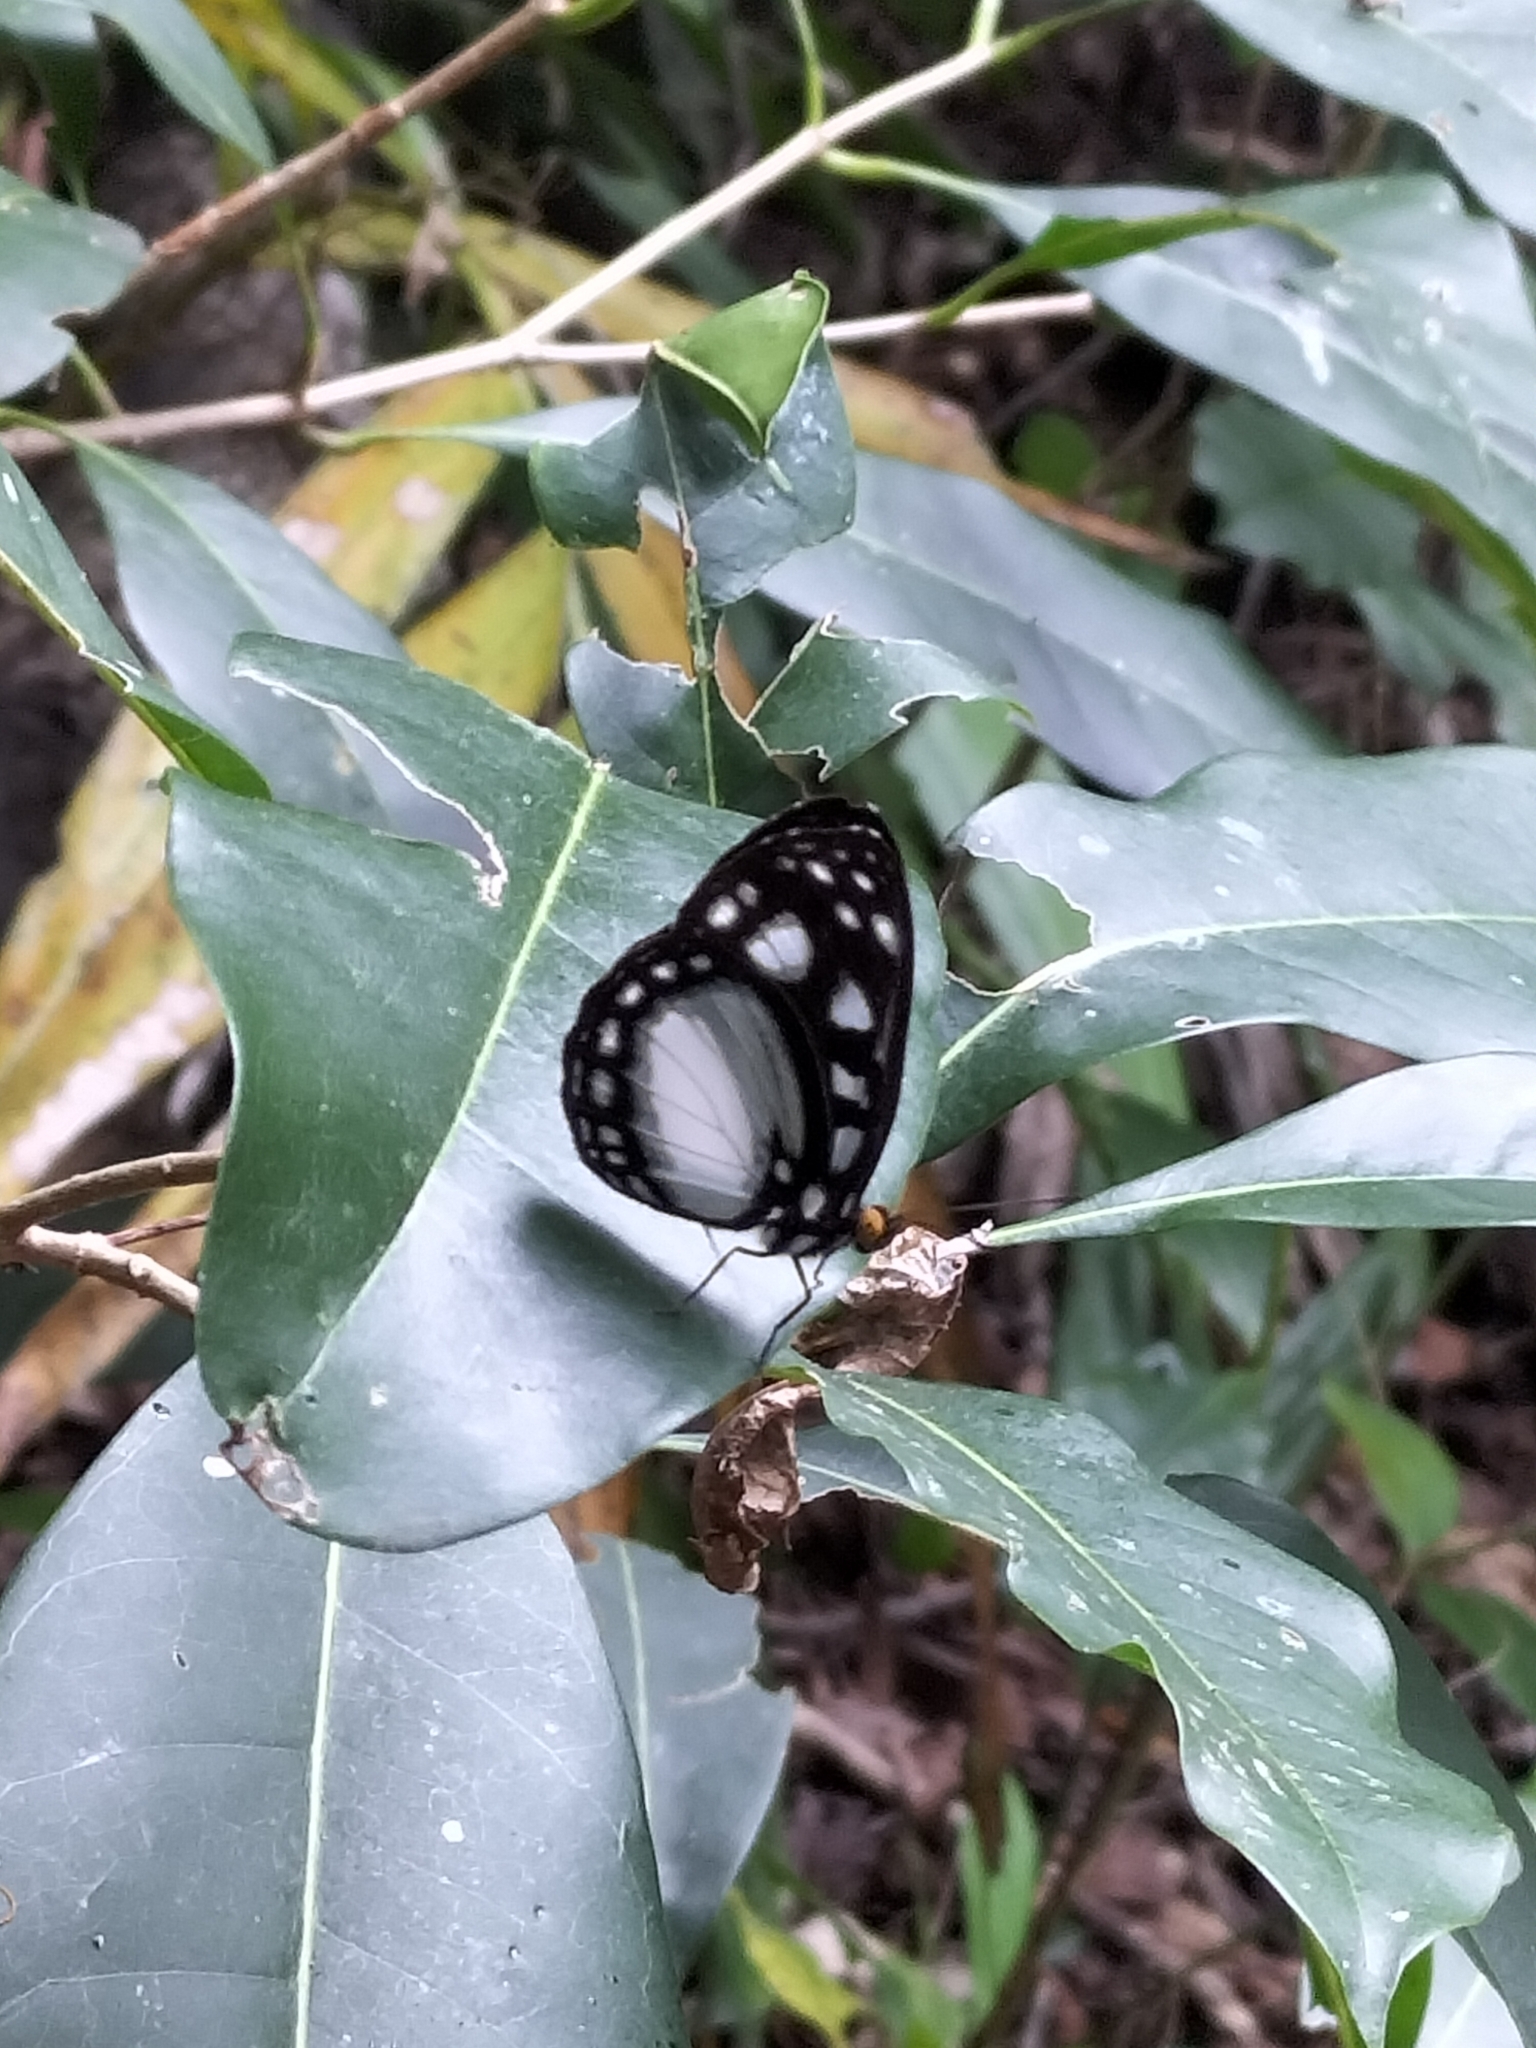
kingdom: Animalia
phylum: Arthropoda
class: Insecta
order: Lepidoptera
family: Nymphalidae
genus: Neptis
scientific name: Neptis praslini
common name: Yellow-eyed plane
